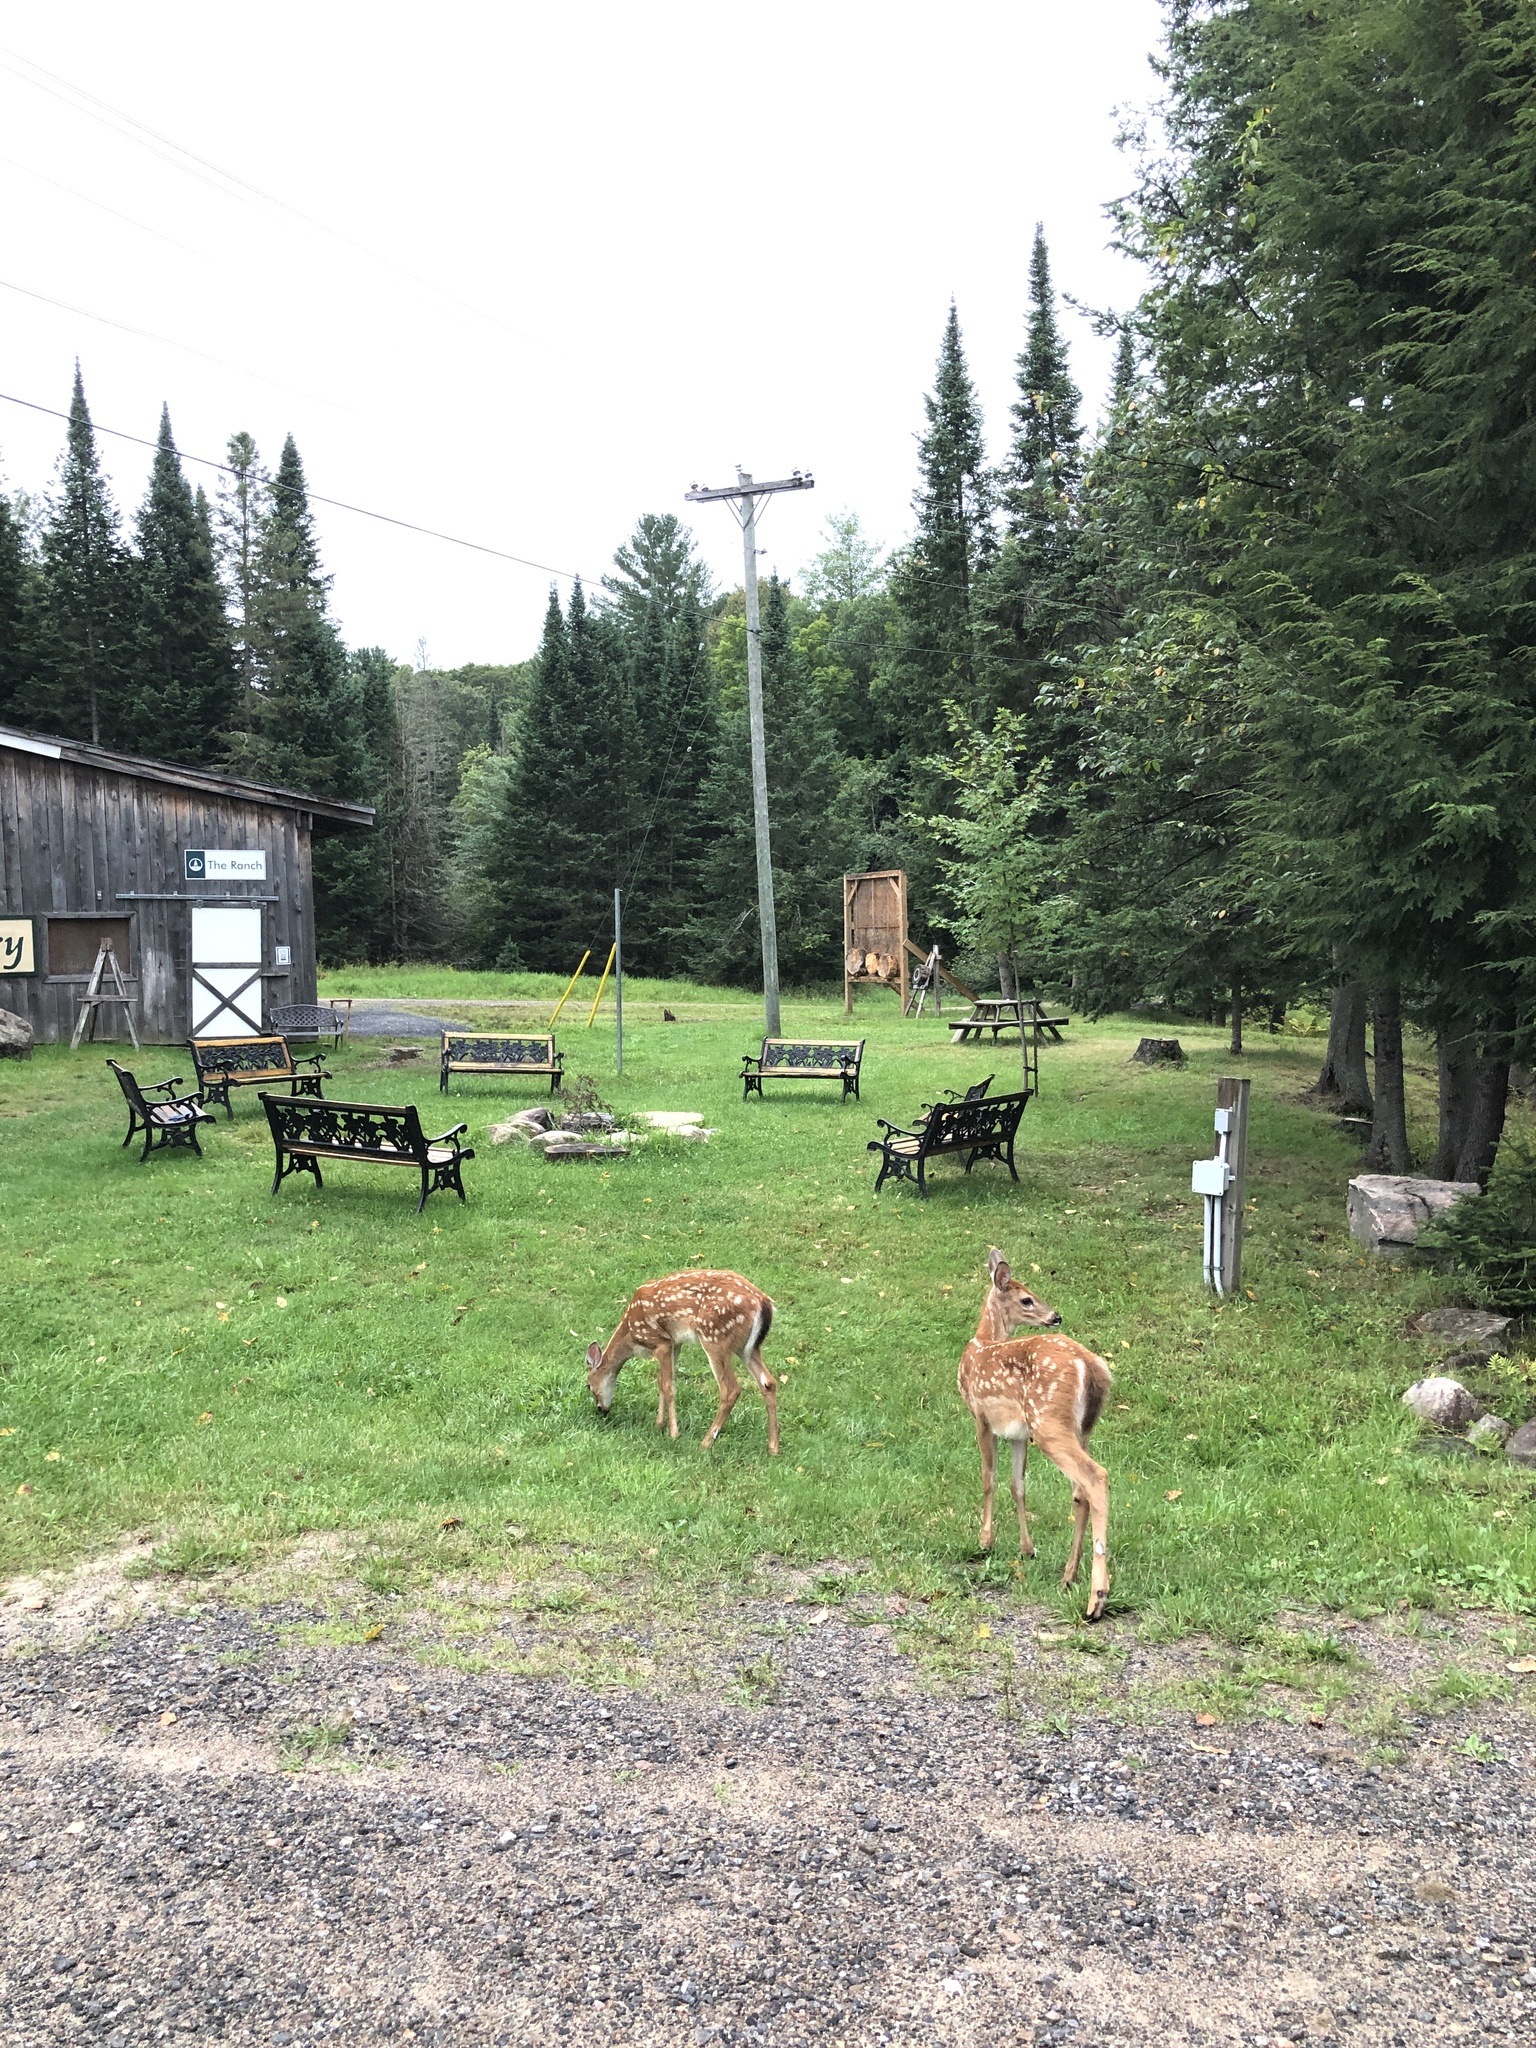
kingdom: Animalia
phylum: Chordata
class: Mammalia
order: Artiodactyla
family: Cervidae
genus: Odocoileus
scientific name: Odocoileus virginianus
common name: White-tailed deer
